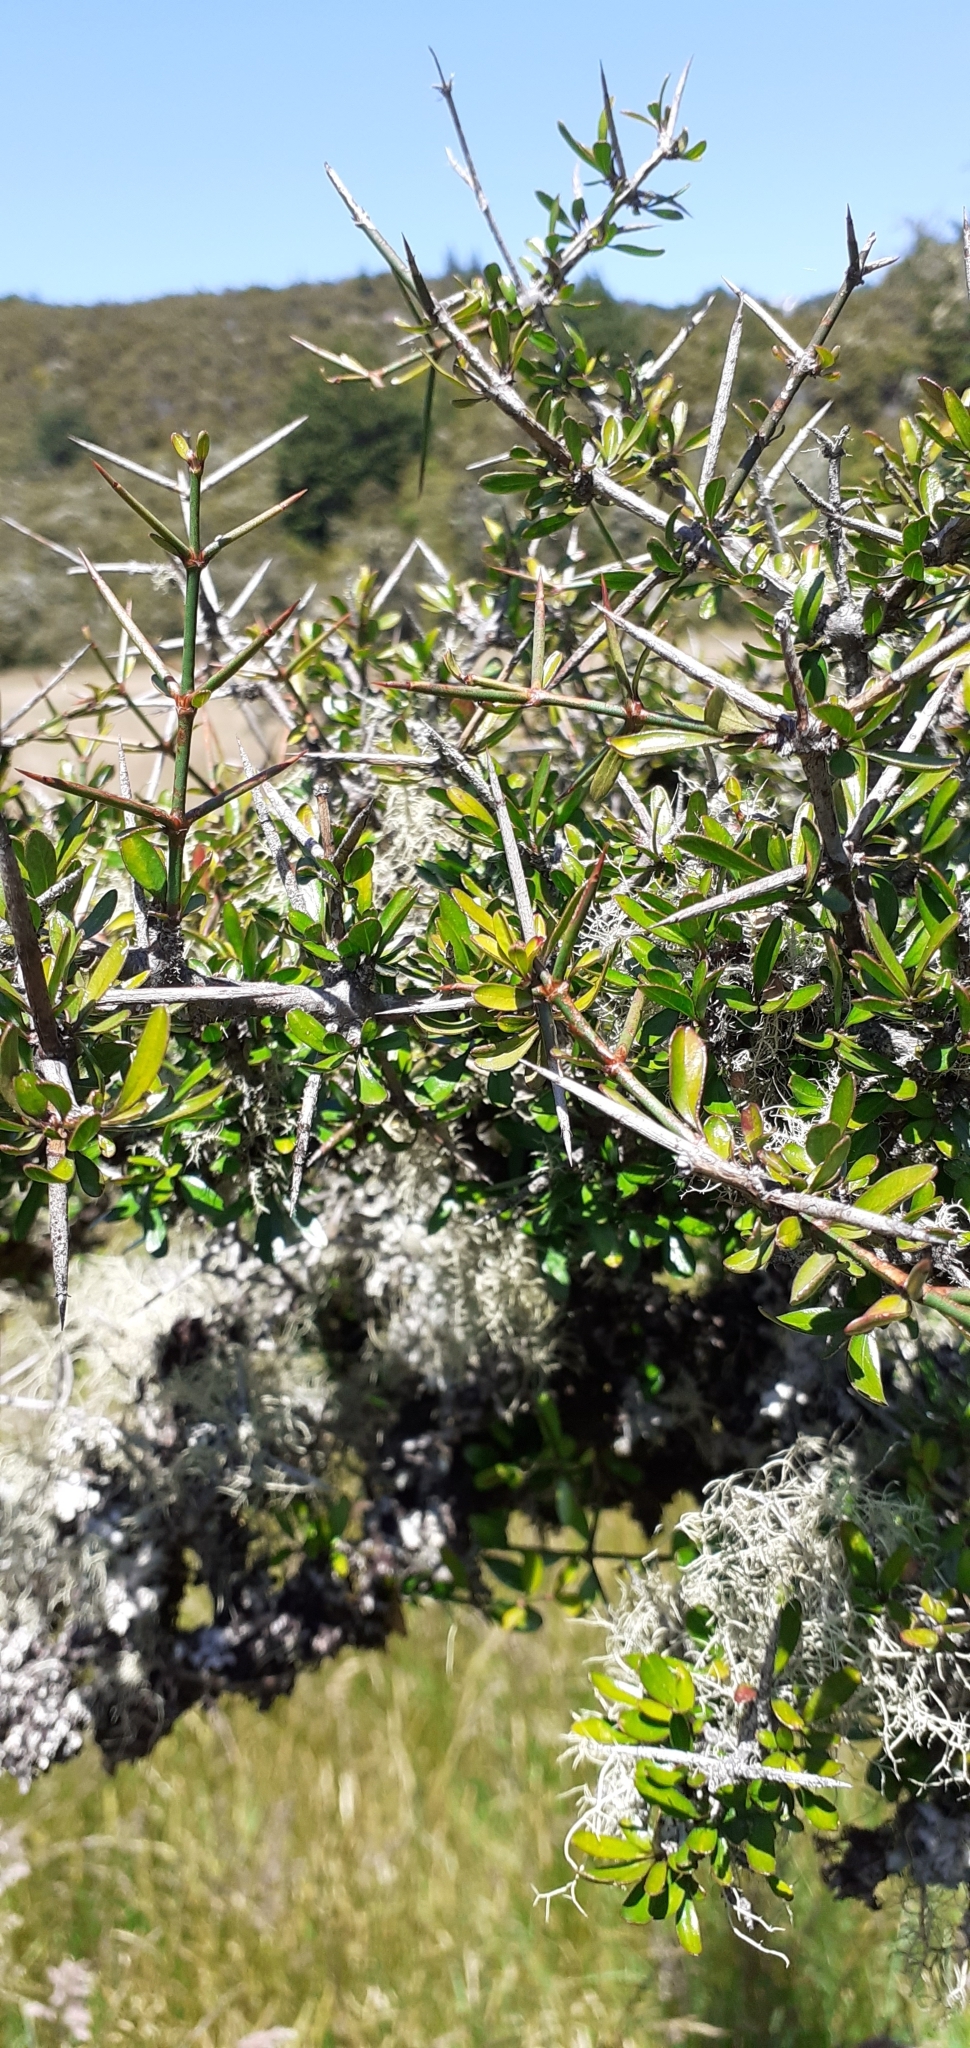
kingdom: Plantae
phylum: Tracheophyta
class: Magnoliopsida
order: Rosales
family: Rhamnaceae
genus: Discaria
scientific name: Discaria toumatou
